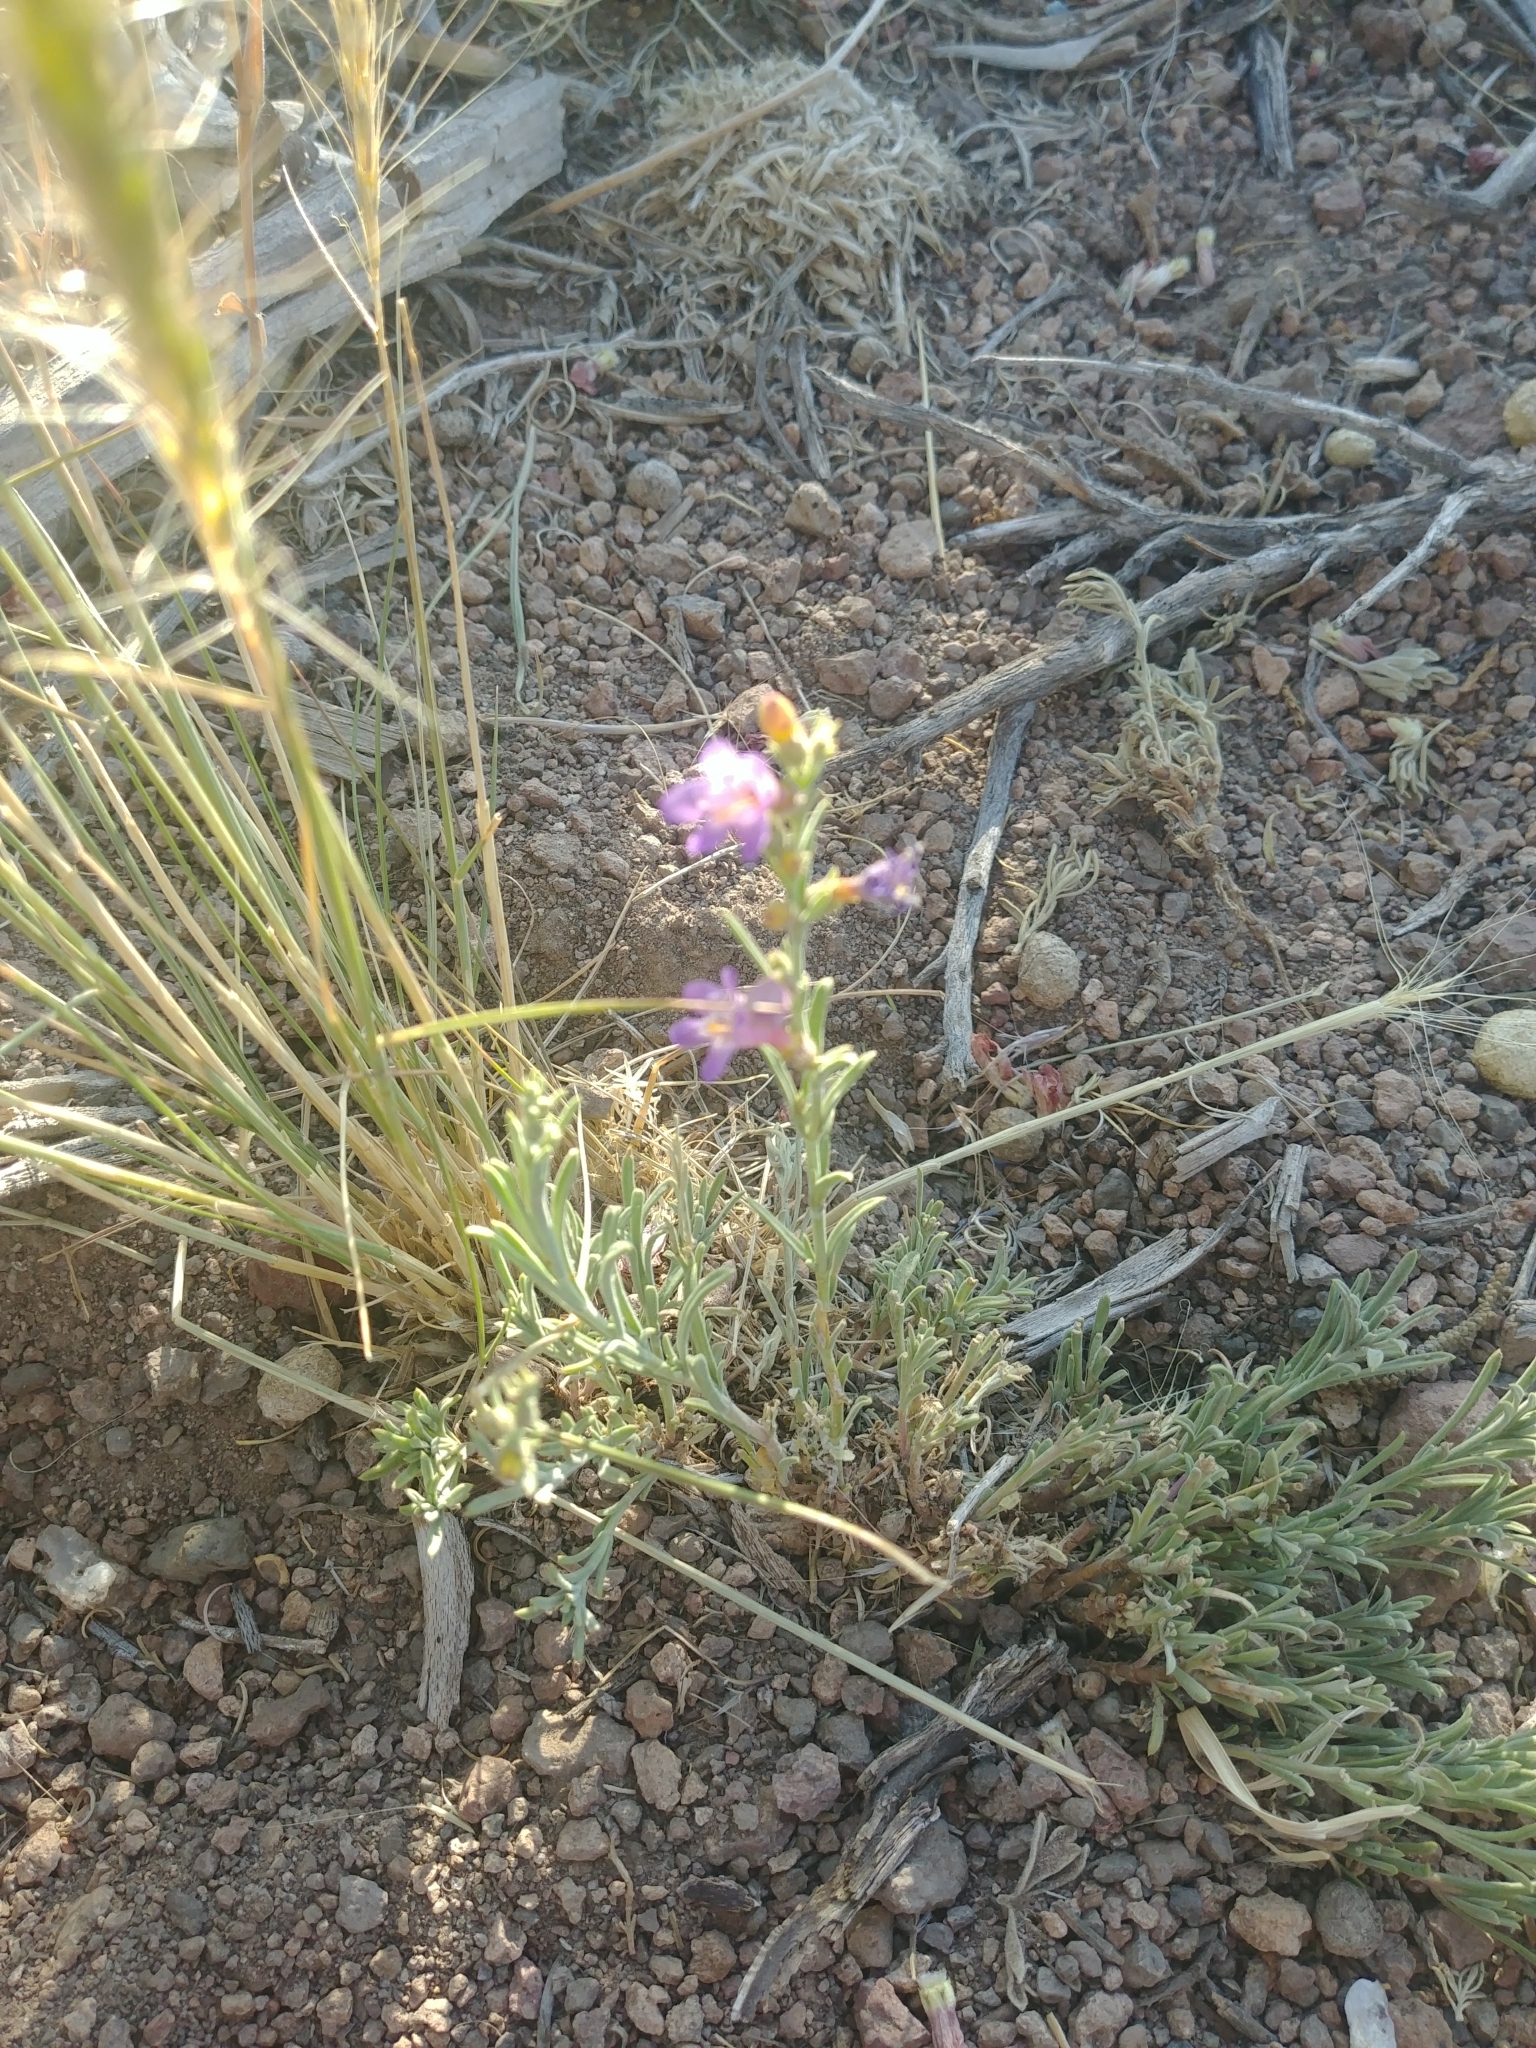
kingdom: Plantae
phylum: Tracheophyta
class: Magnoliopsida
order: Lamiales
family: Plantaginaceae
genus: Penstemon
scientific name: Penstemon linarioides
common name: Siler's penstemon
